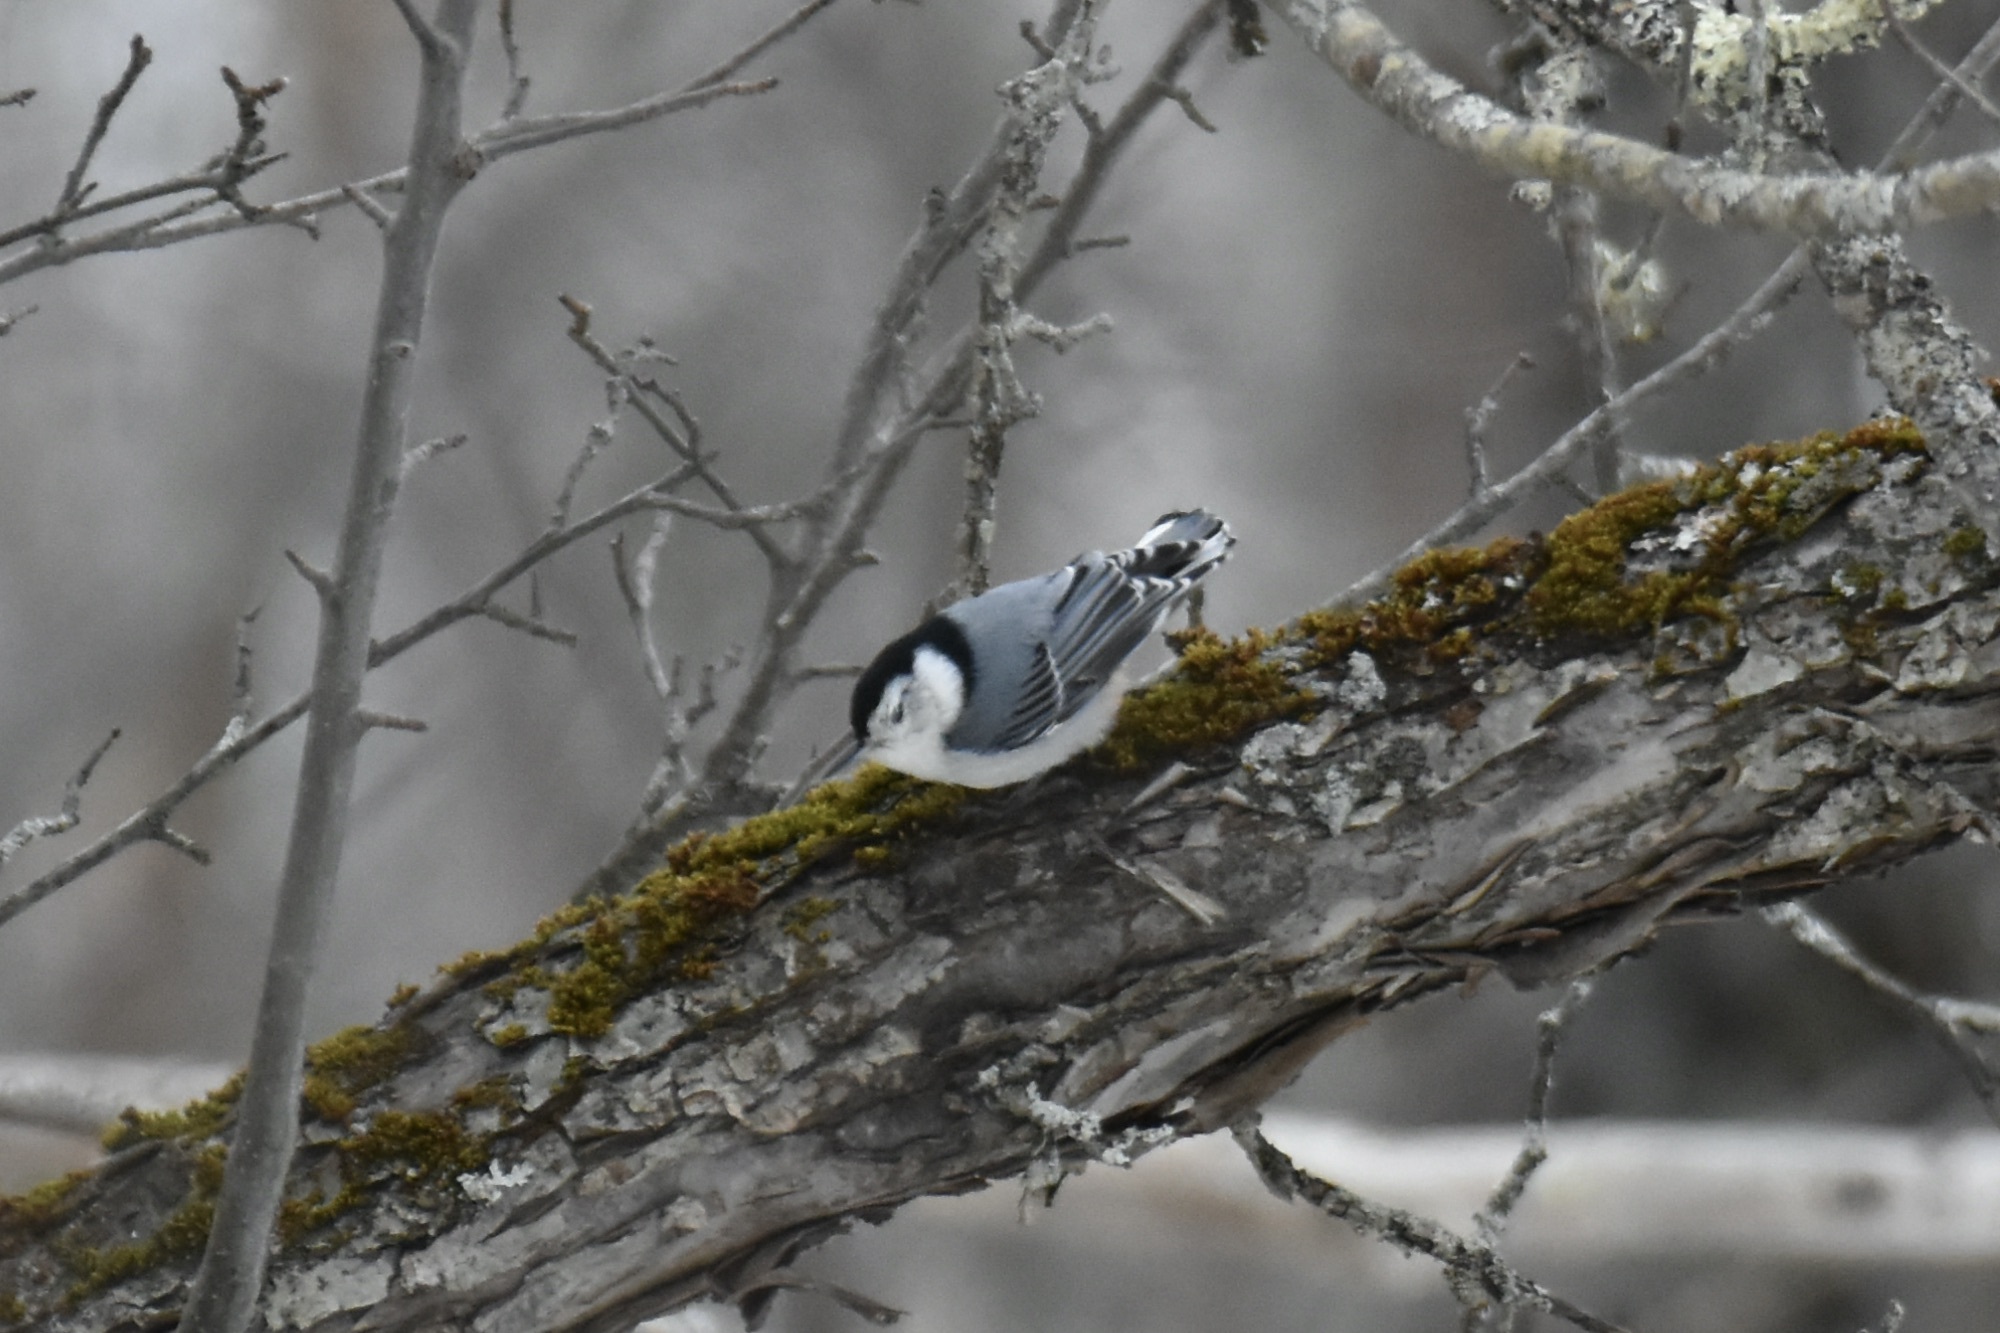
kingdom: Animalia
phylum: Chordata
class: Aves
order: Passeriformes
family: Sittidae
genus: Sitta
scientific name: Sitta carolinensis
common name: White-breasted nuthatch
